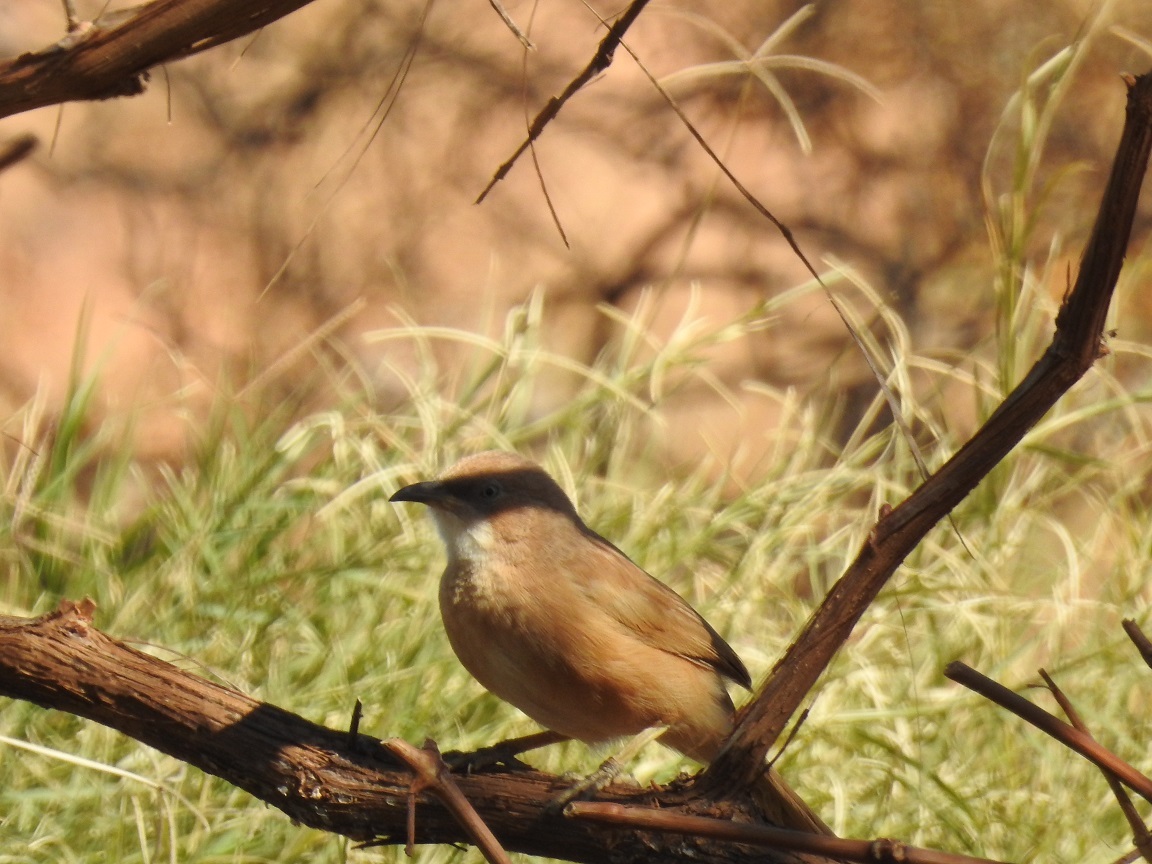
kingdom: Animalia
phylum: Chordata
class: Aves
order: Passeriformes
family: Leiothrichidae
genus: Turdoides
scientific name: Turdoides fulva
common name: Fulvous babbler
